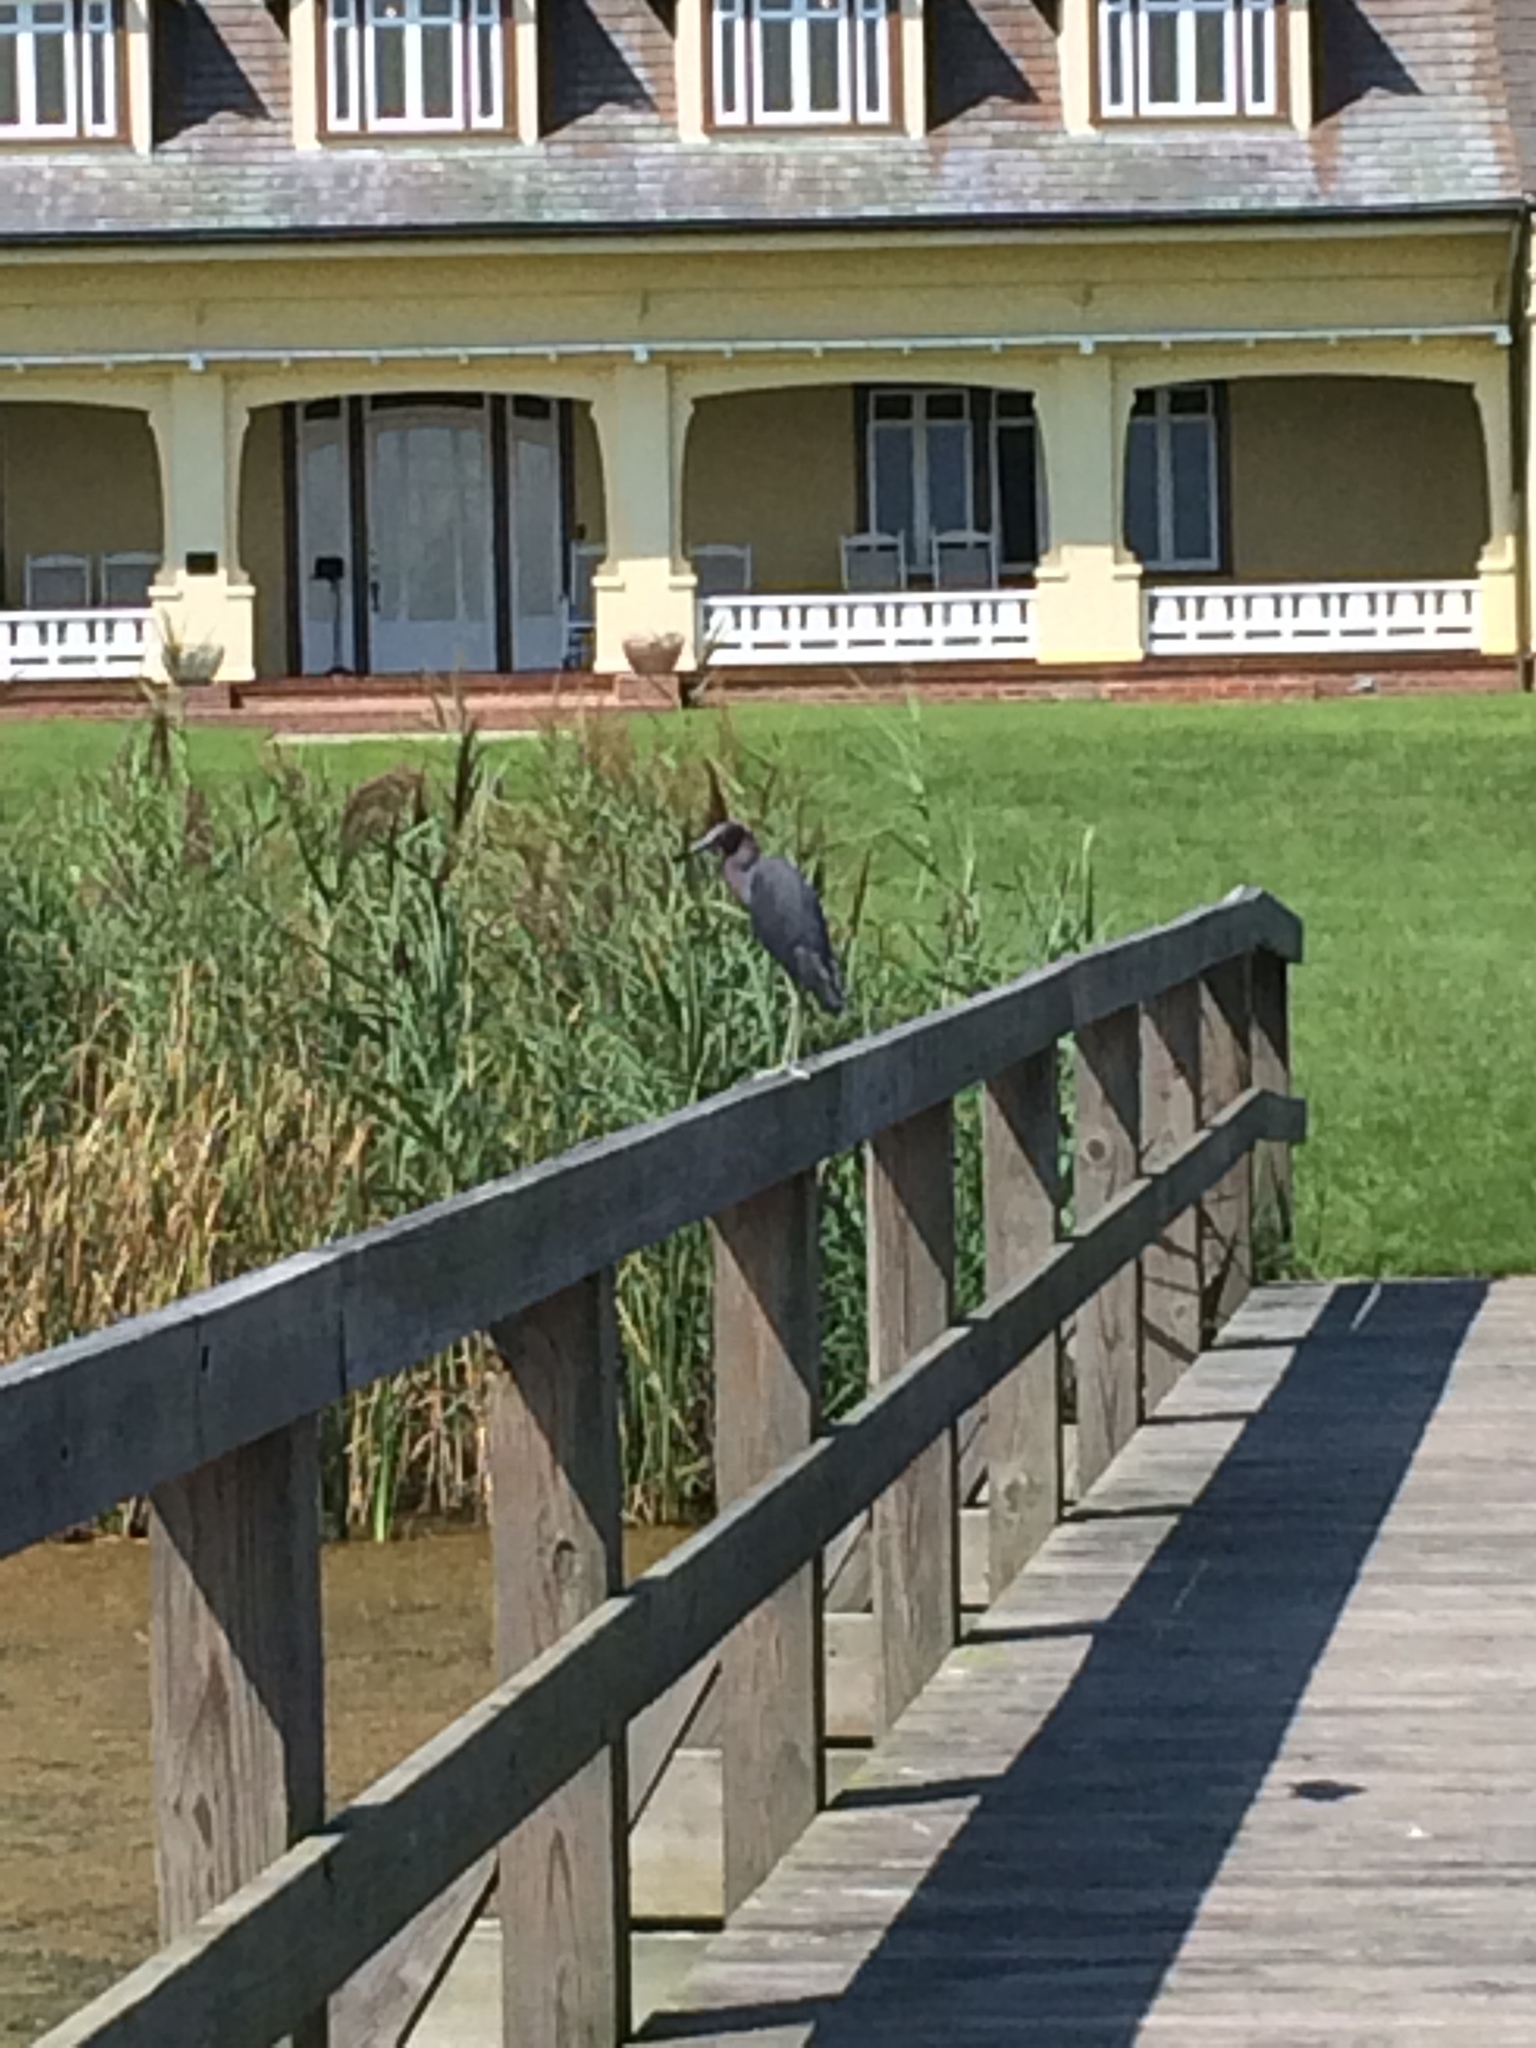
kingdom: Animalia
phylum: Chordata
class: Aves
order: Pelecaniformes
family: Ardeidae
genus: Egretta
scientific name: Egretta caerulea
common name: Little blue heron
